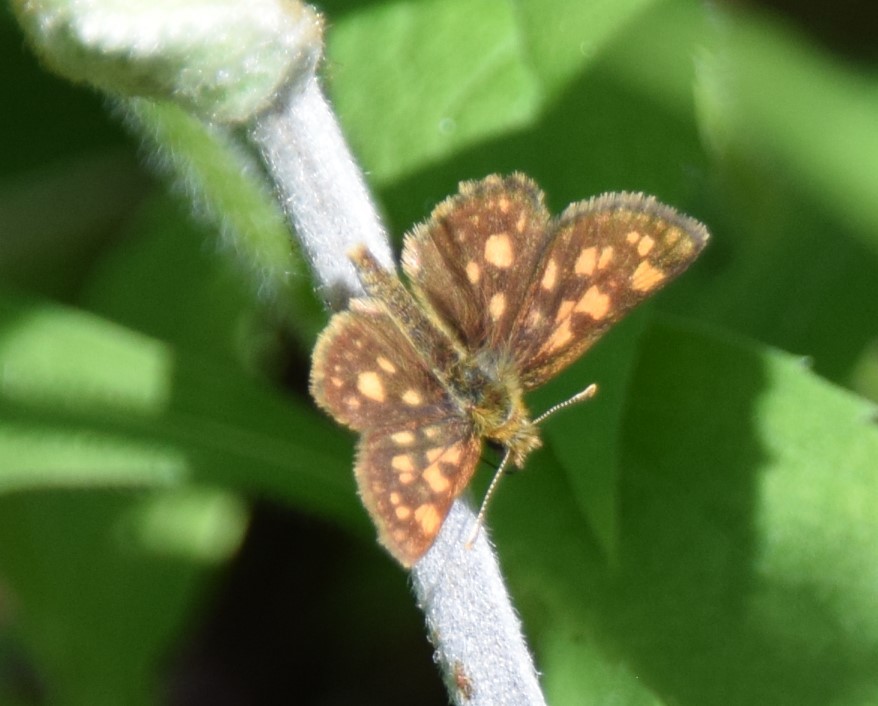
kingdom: Animalia
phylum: Arthropoda
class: Insecta
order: Lepidoptera
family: Hesperiidae
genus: Carterocephalus
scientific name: Carterocephalus mandan
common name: Arctic skipperling
